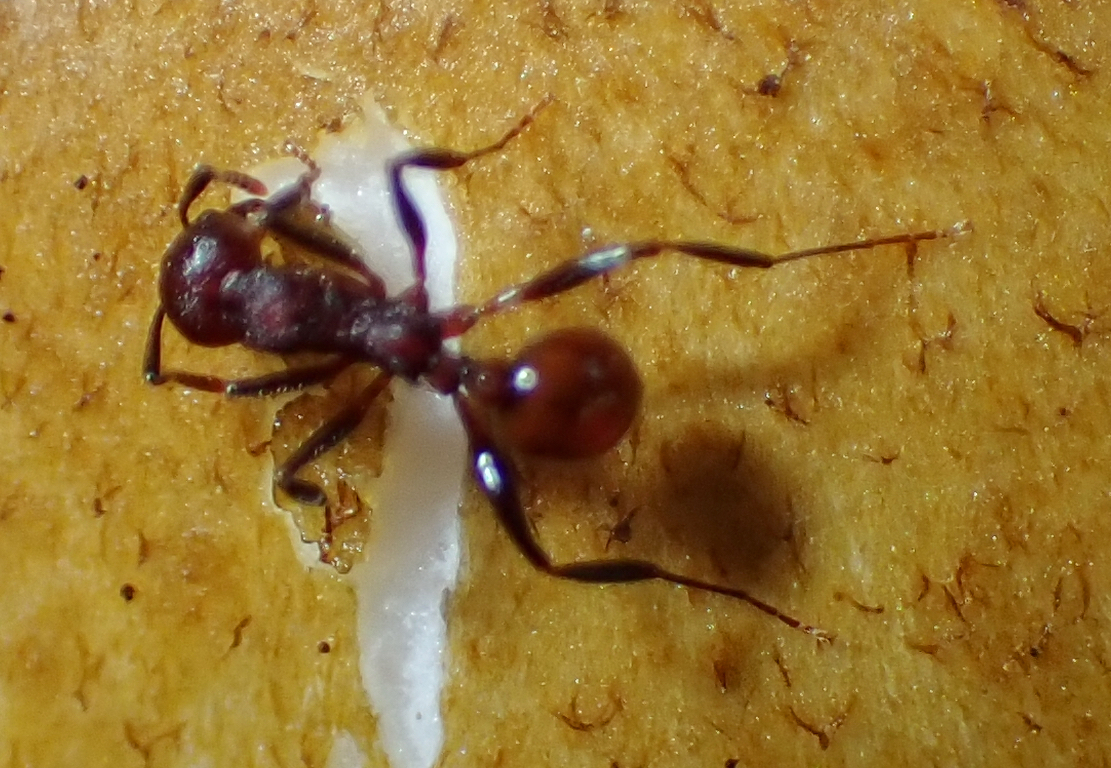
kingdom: Animalia
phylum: Arthropoda
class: Insecta
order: Hymenoptera
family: Formicidae
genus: Aphaenogaster
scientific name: Aphaenogaster tennesseensis
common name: Tennessee thread-waisted ant
